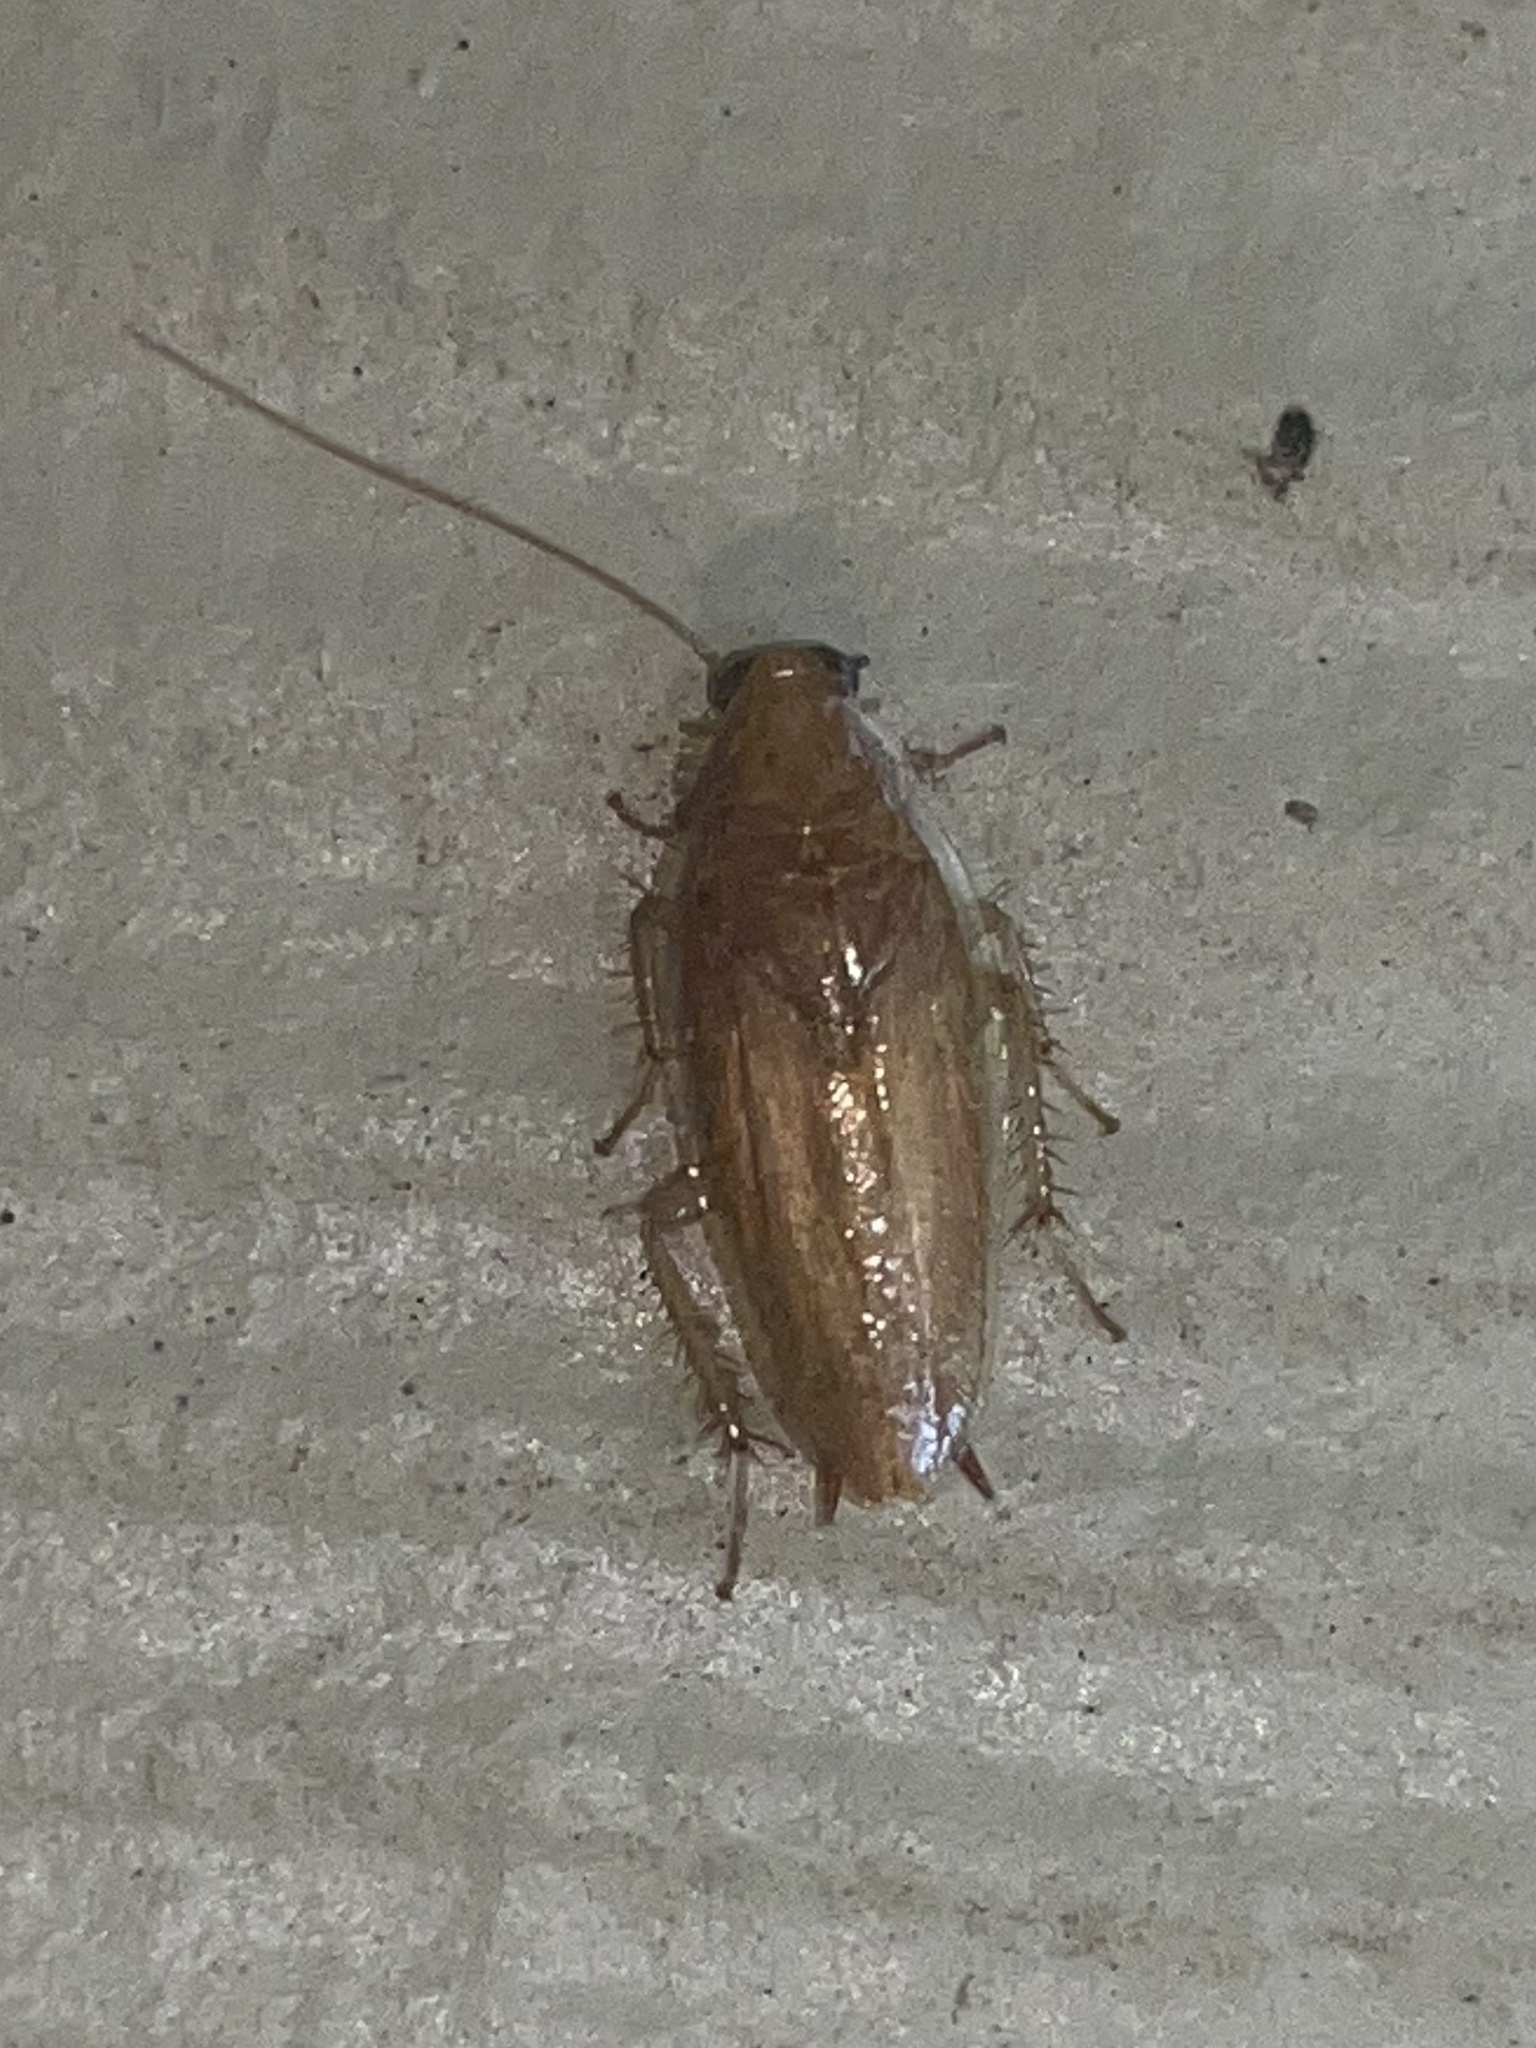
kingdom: Animalia
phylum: Arthropoda
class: Insecta
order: Blattodea
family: Ectobiidae
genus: Chorisoneura
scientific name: Chorisoneura texensis
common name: Small texas cockroach
